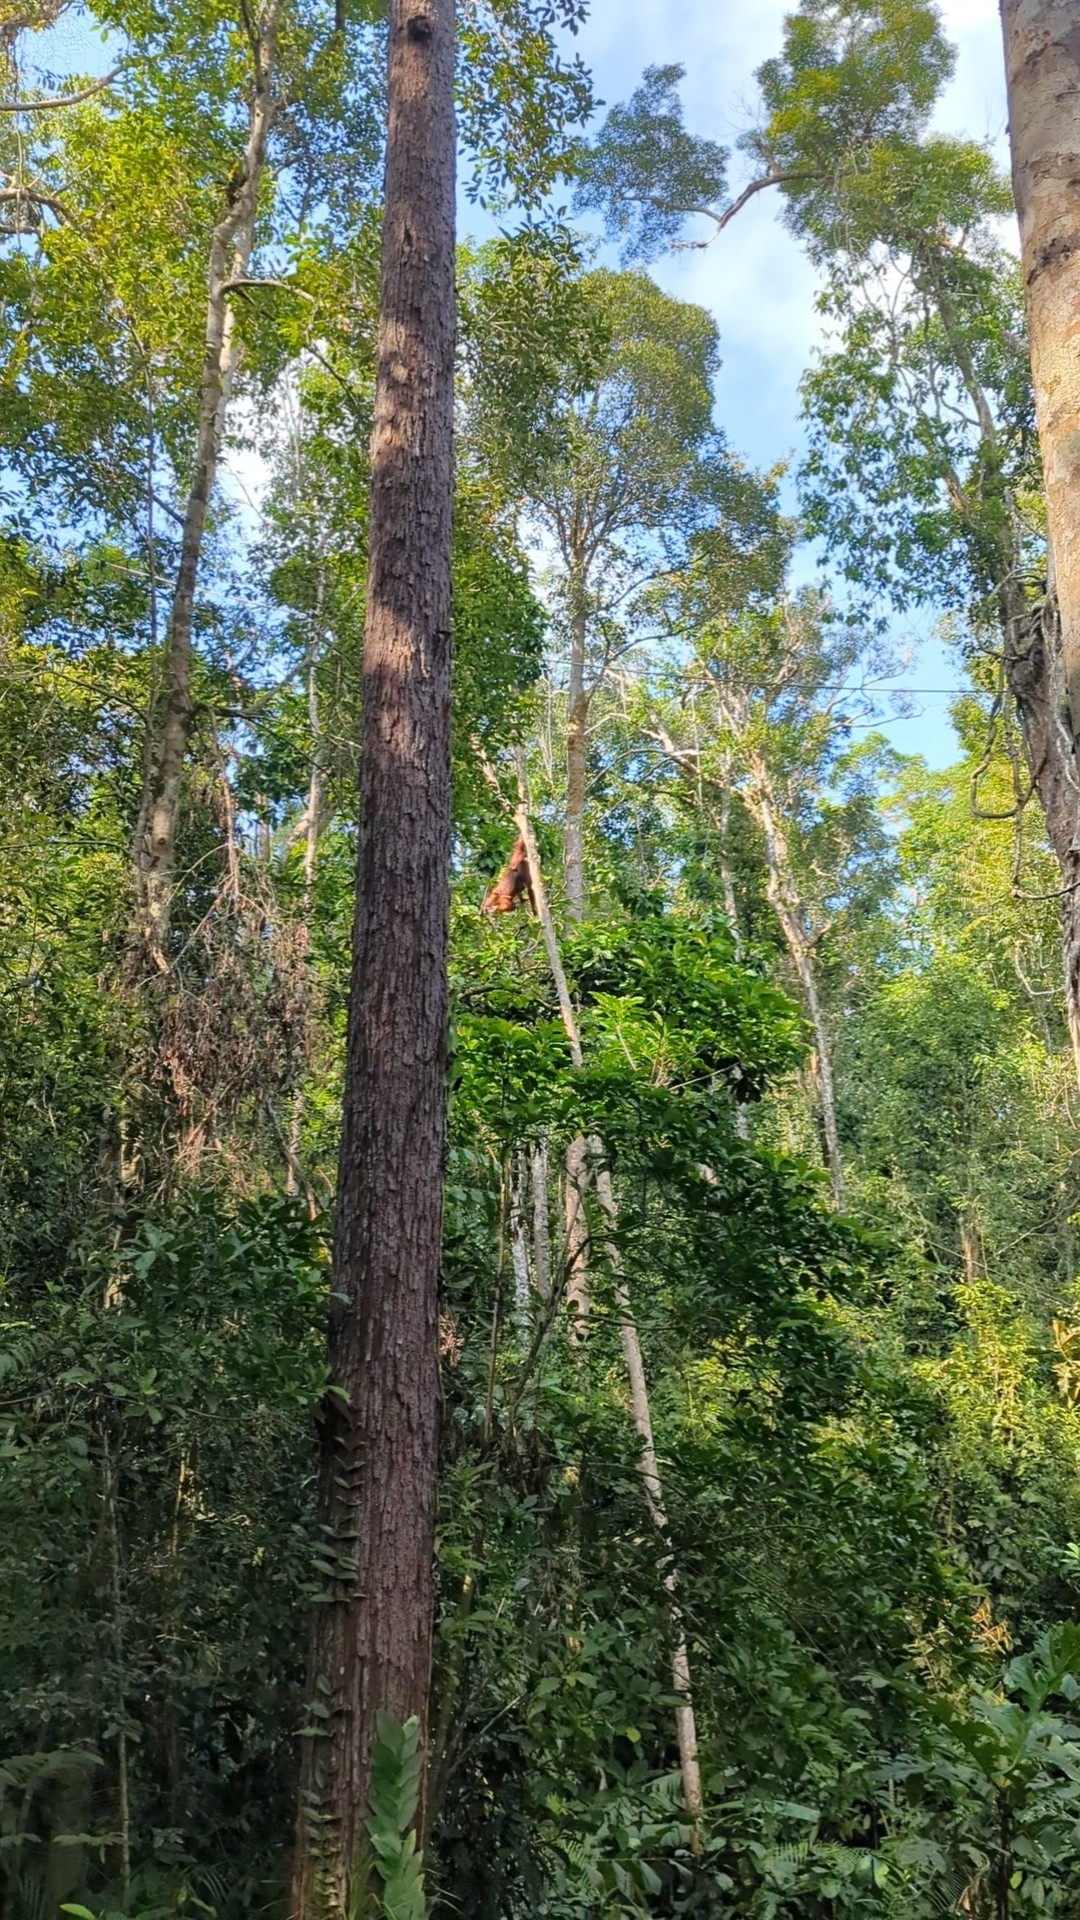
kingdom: Animalia
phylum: Chordata
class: Mammalia
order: Primates
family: Hominidae
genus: Pongo
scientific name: Pongo pygmaeus
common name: Bornean orangutan
